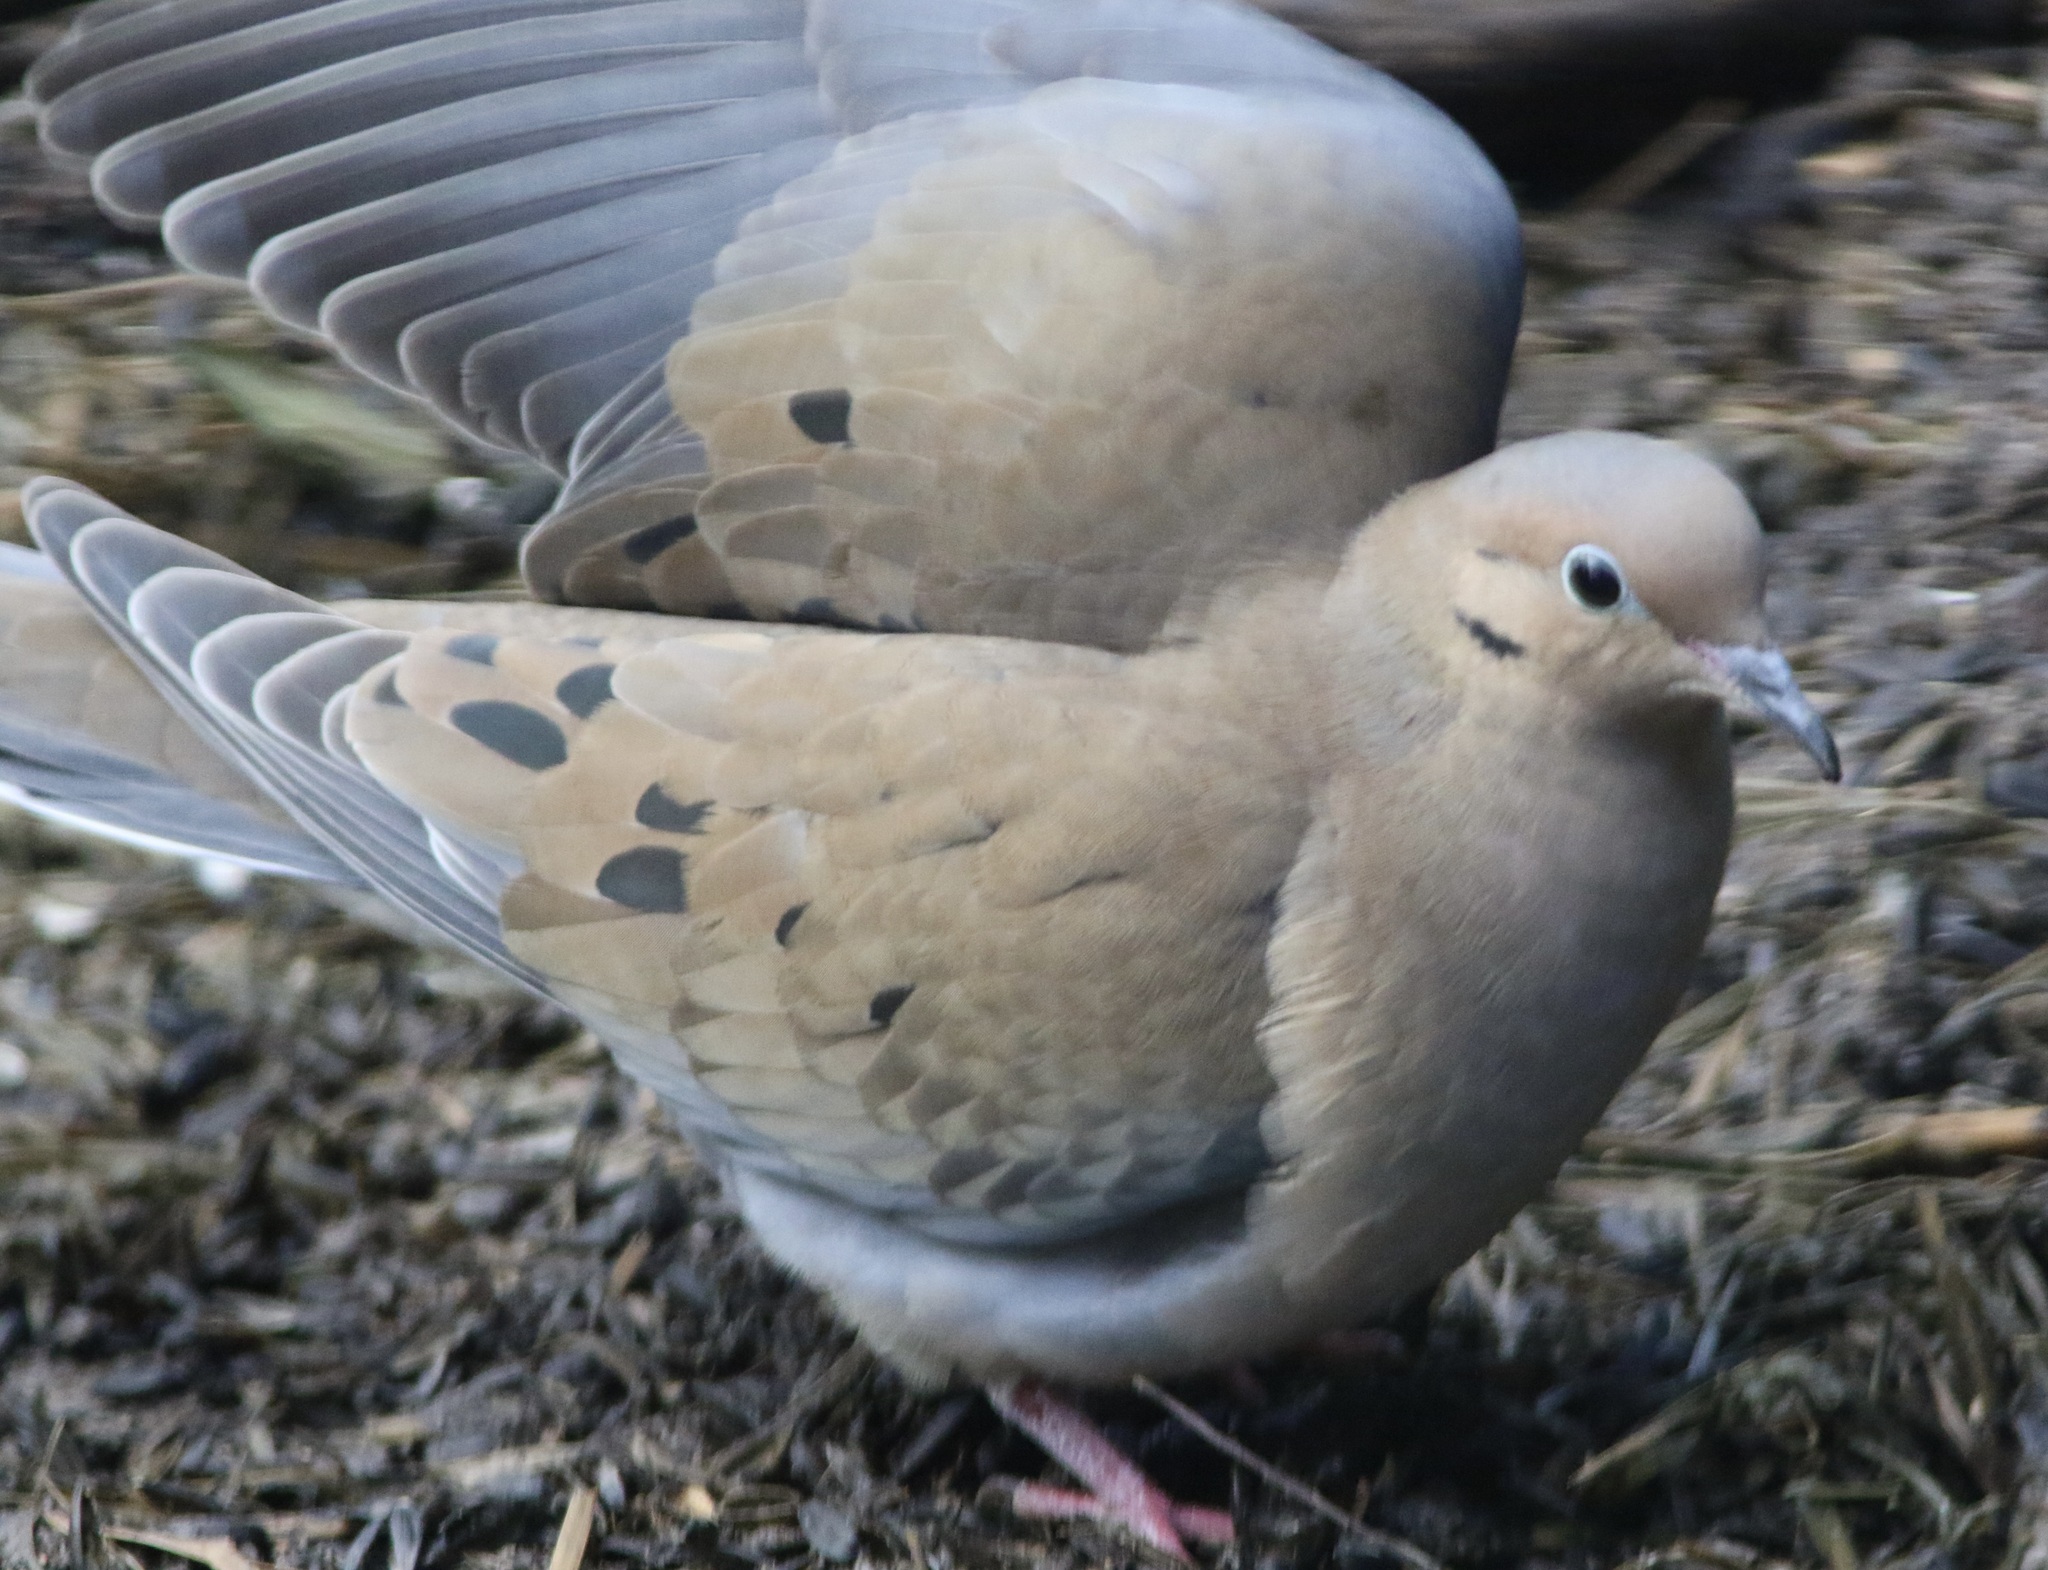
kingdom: Animalia
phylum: Chordata
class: Aves
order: Columbiformes
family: Columbidae
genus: Zenaida
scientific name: Zenaida macroura
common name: Mourning dove
